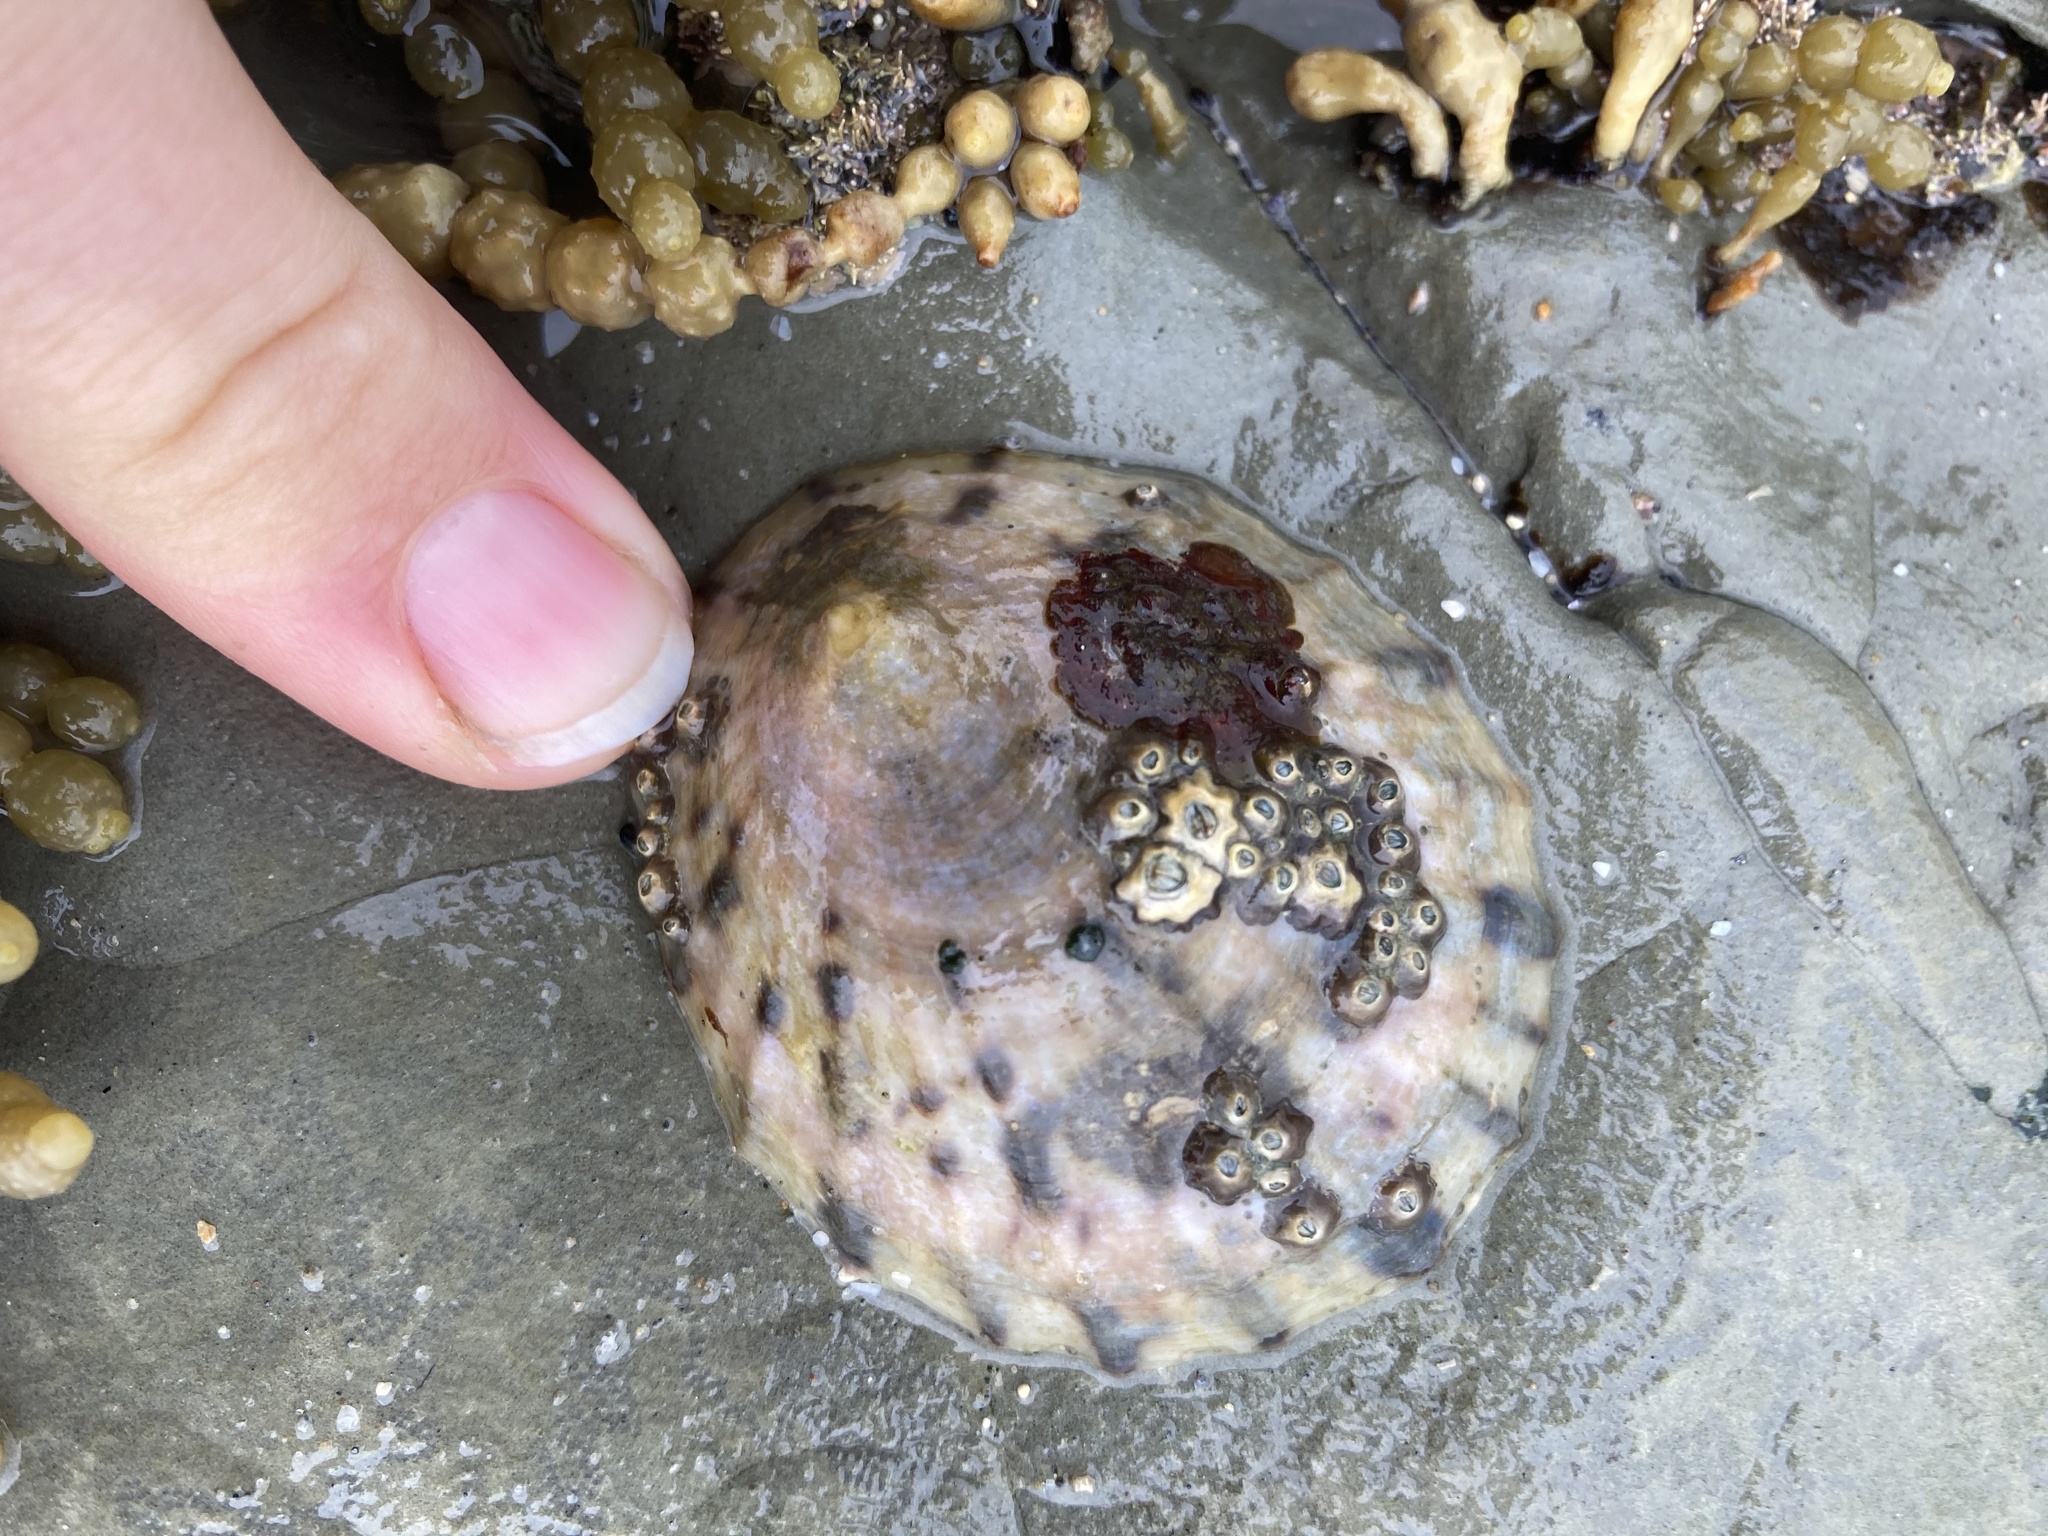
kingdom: Animalia
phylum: Mollusca
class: Gastropoda
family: Nacellidae
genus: Cellana
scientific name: Cellana radians
